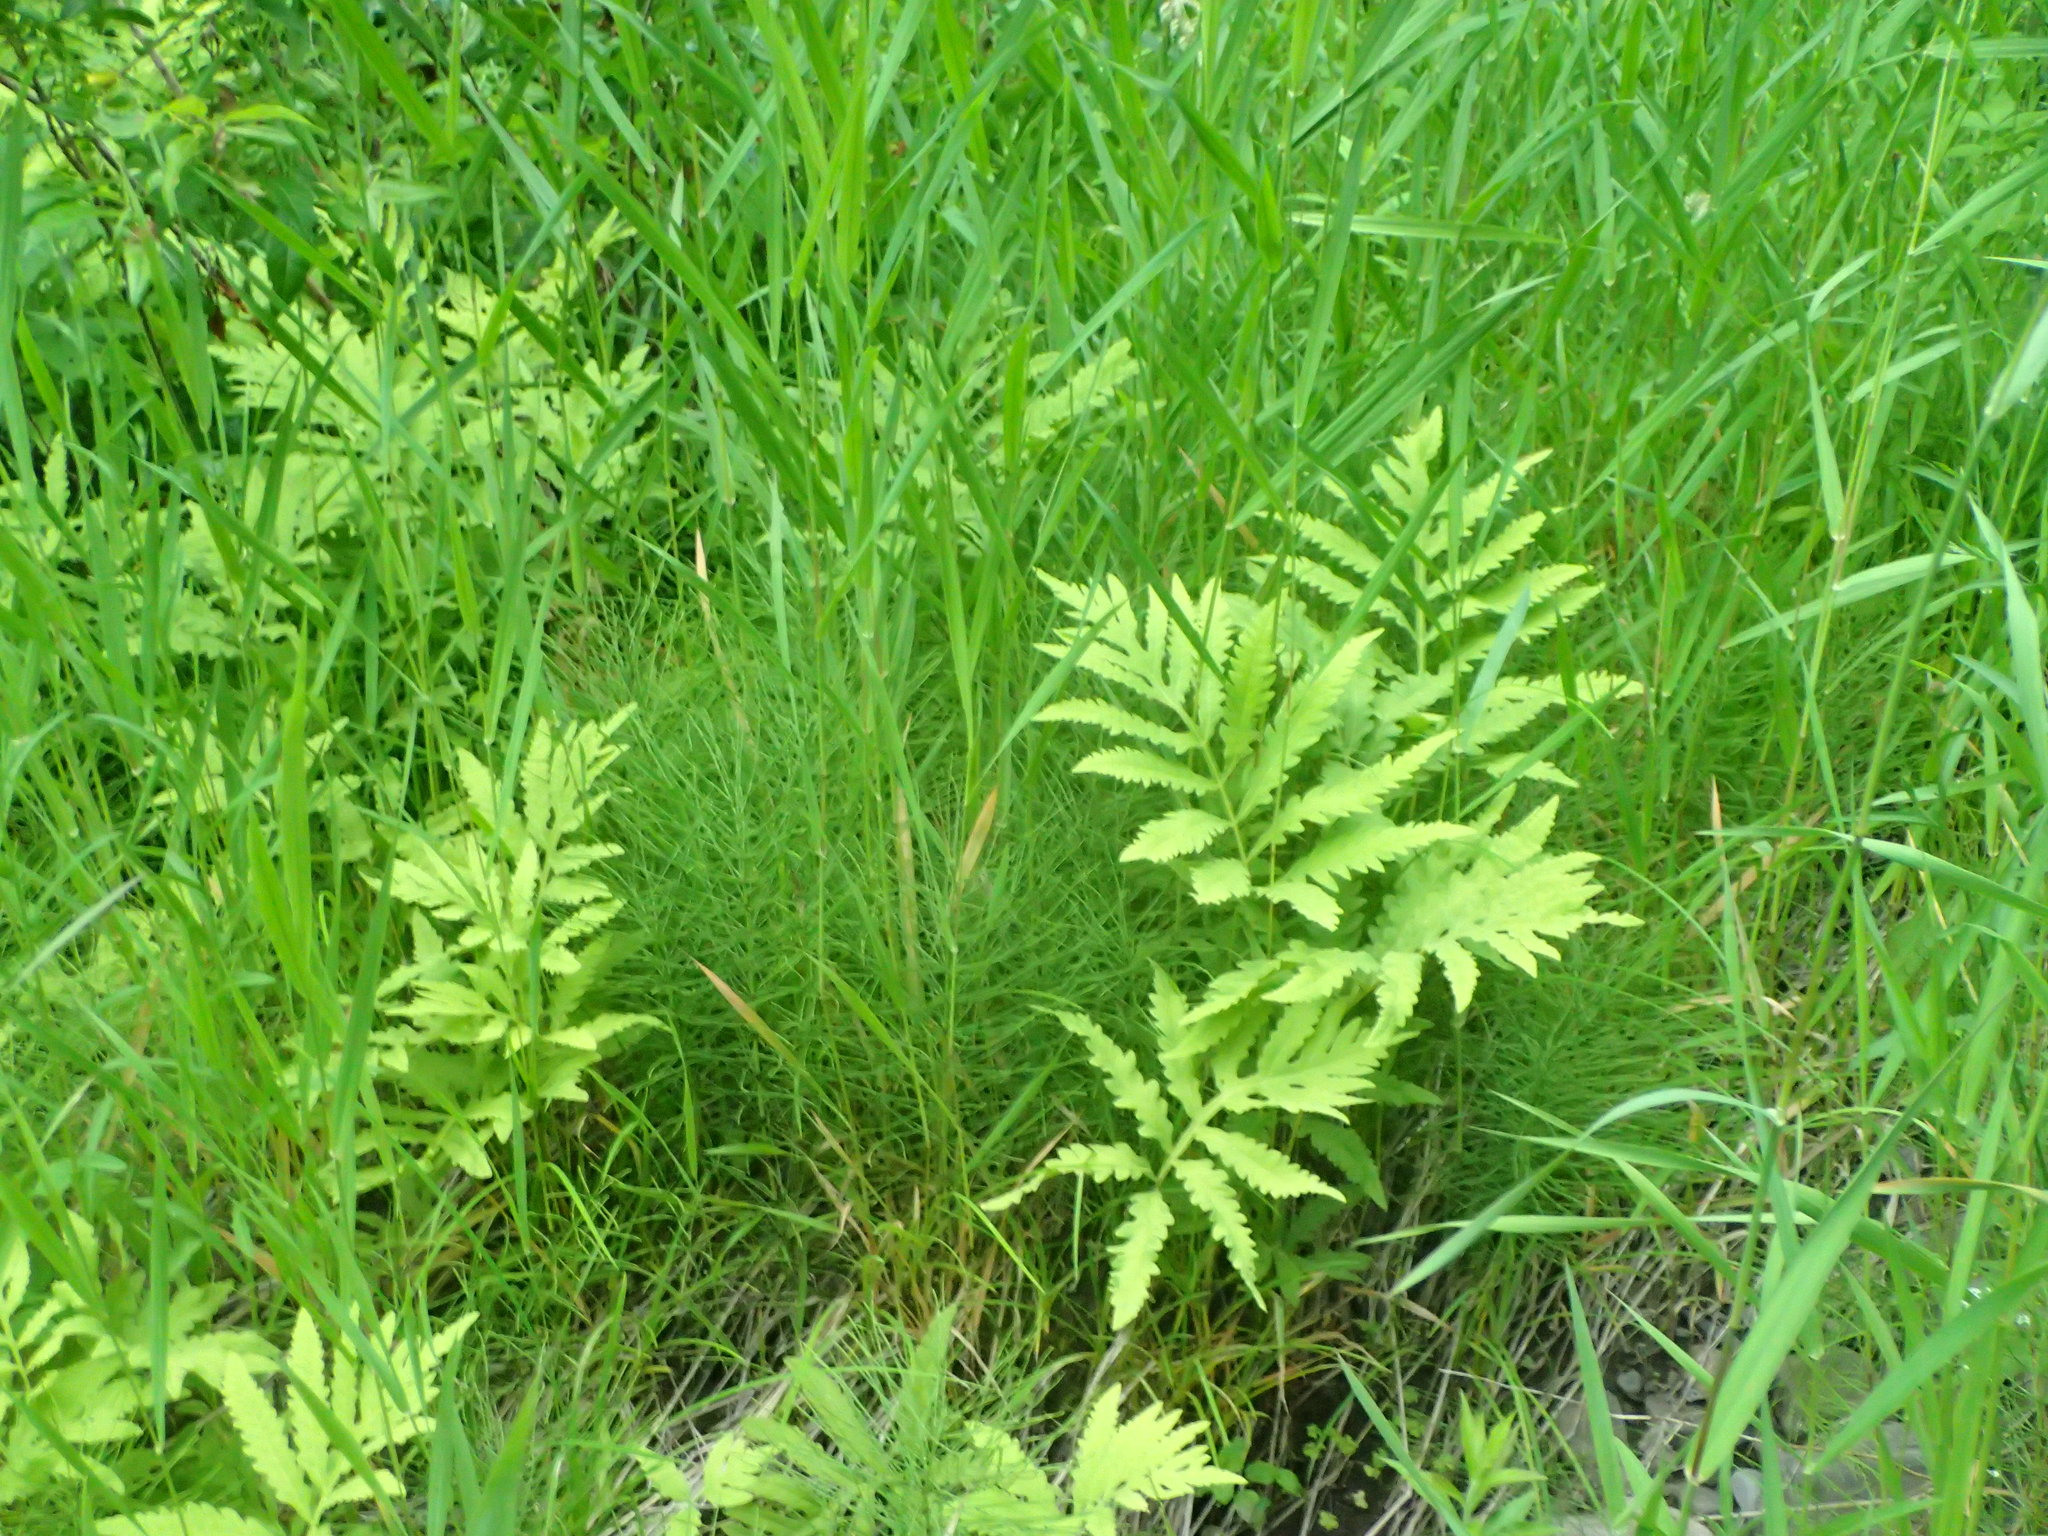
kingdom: Plantae
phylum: Tracheophyta
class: Polypodiopsida
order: Polypodiales
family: Onocleaceae
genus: Onoclea
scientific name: Onoclea sensibilis
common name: Sensitive fern
